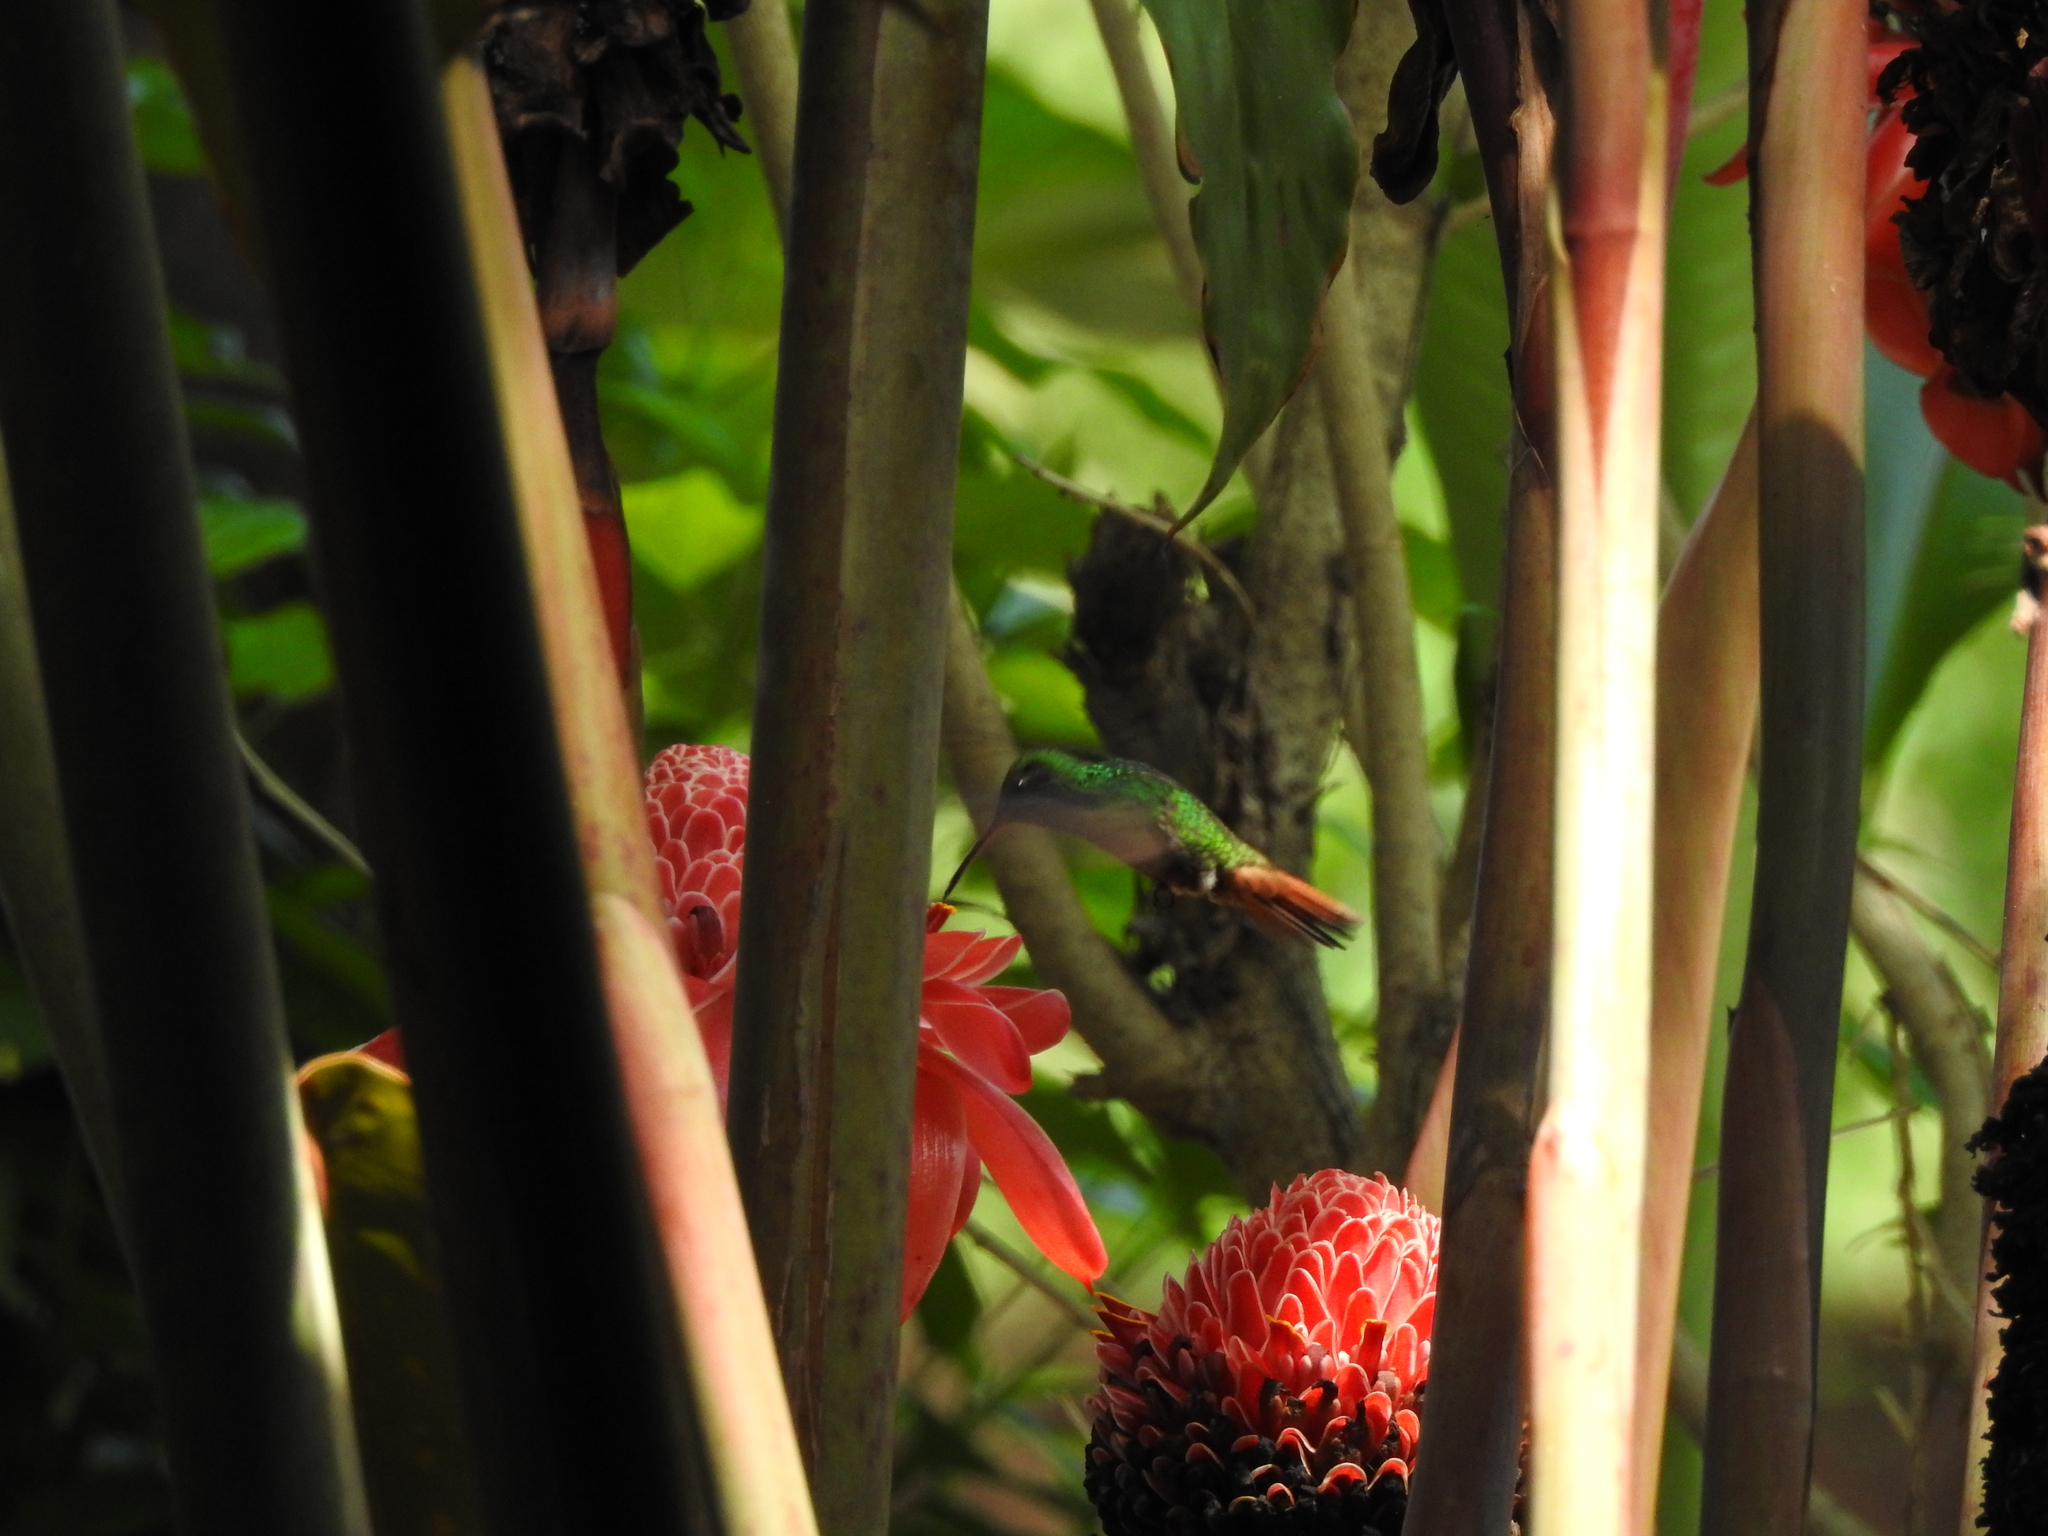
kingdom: Animalia
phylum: Chordata
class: Aves
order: Apodiformes
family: Trochilidae
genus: Amazilia
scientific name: Amazilia tzacatl
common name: Rufous-tailed hummingbird
